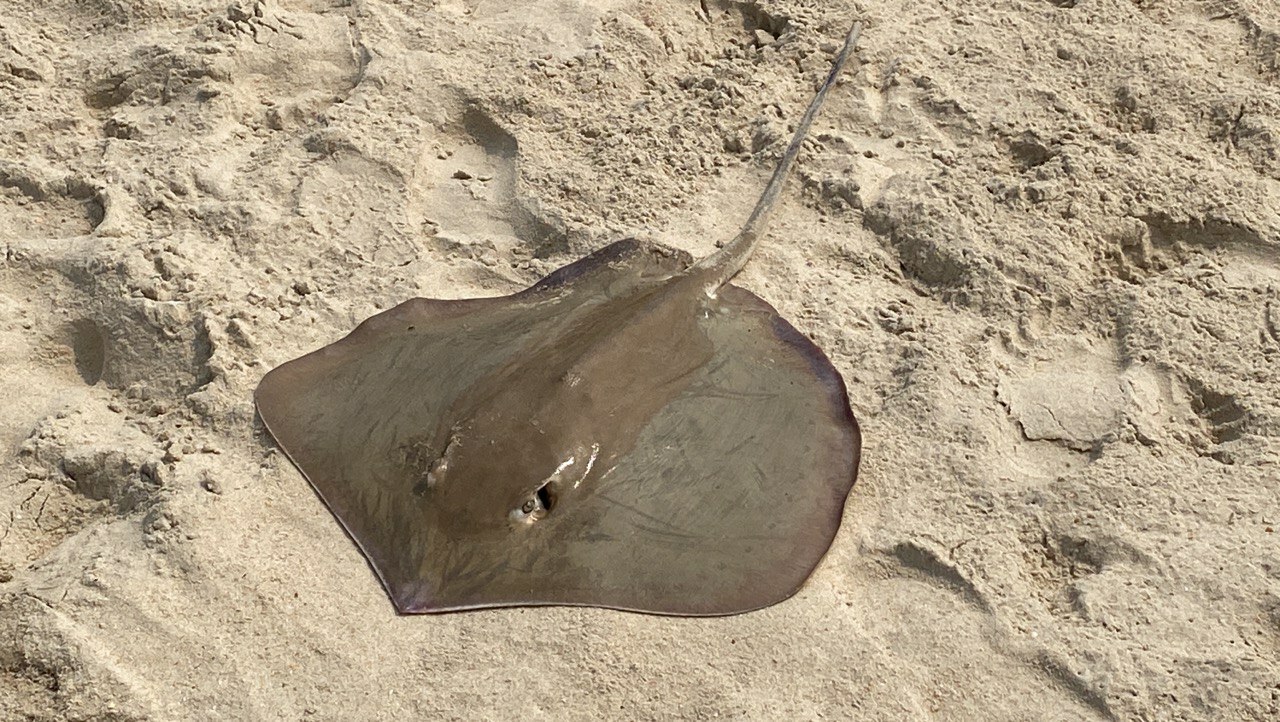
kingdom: Animalia
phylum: Chordata
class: Elasmobranchii
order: Myliobatiformes
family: Dasyatidae
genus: Maculabatis
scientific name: Maculabatis arabica
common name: Pakistan whipray
